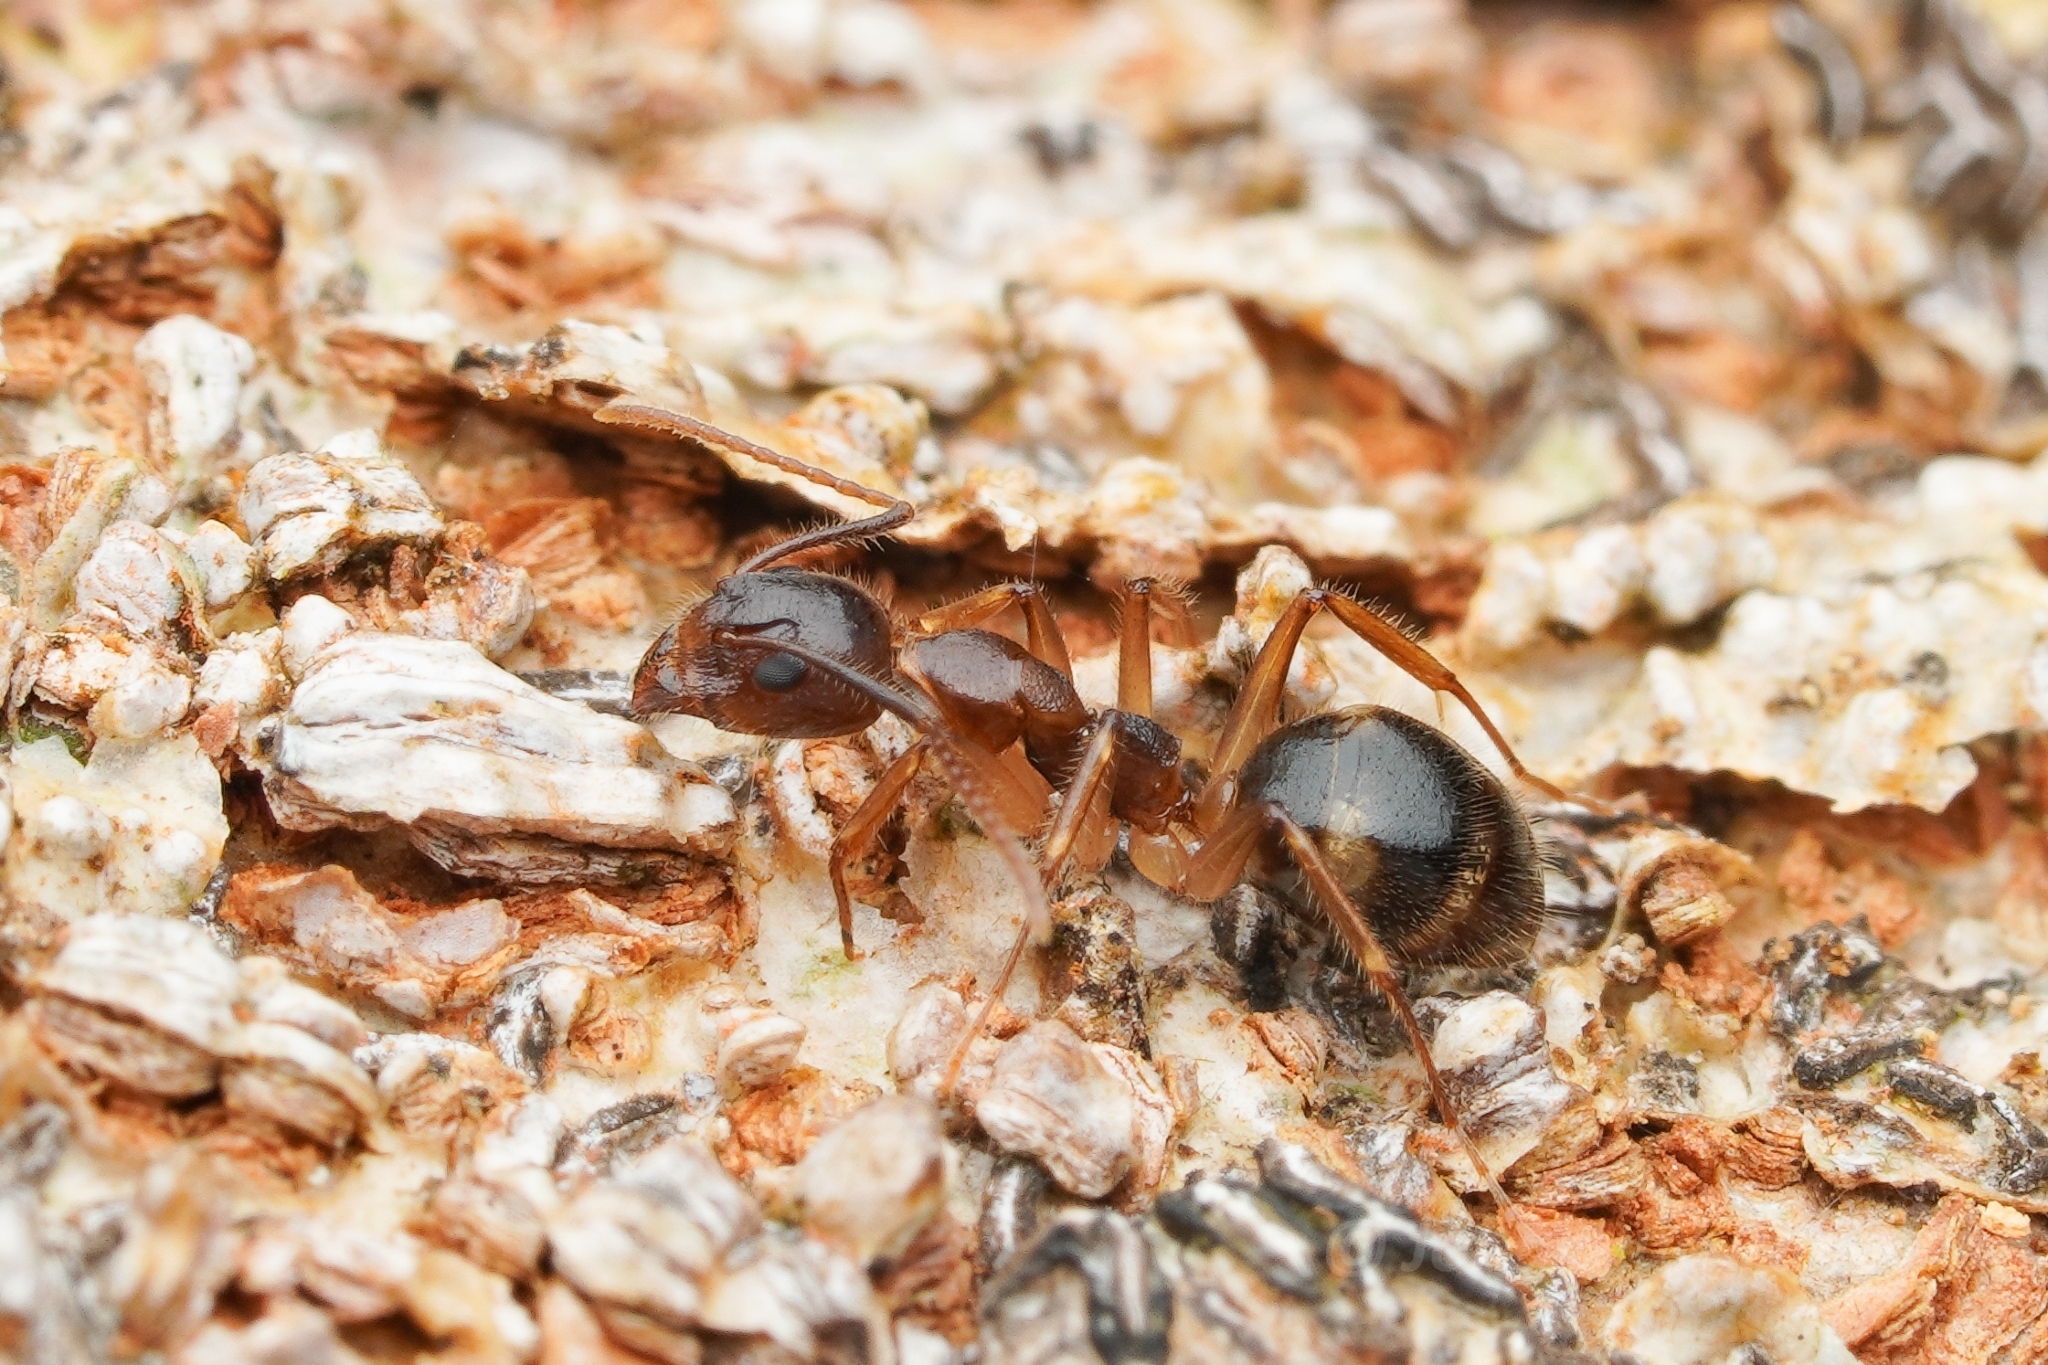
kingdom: Animalia
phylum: Arthropoda
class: Insecta
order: Hymenoptera
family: Formicidae
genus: Dolichoderus
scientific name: Dolichoderus diversus
